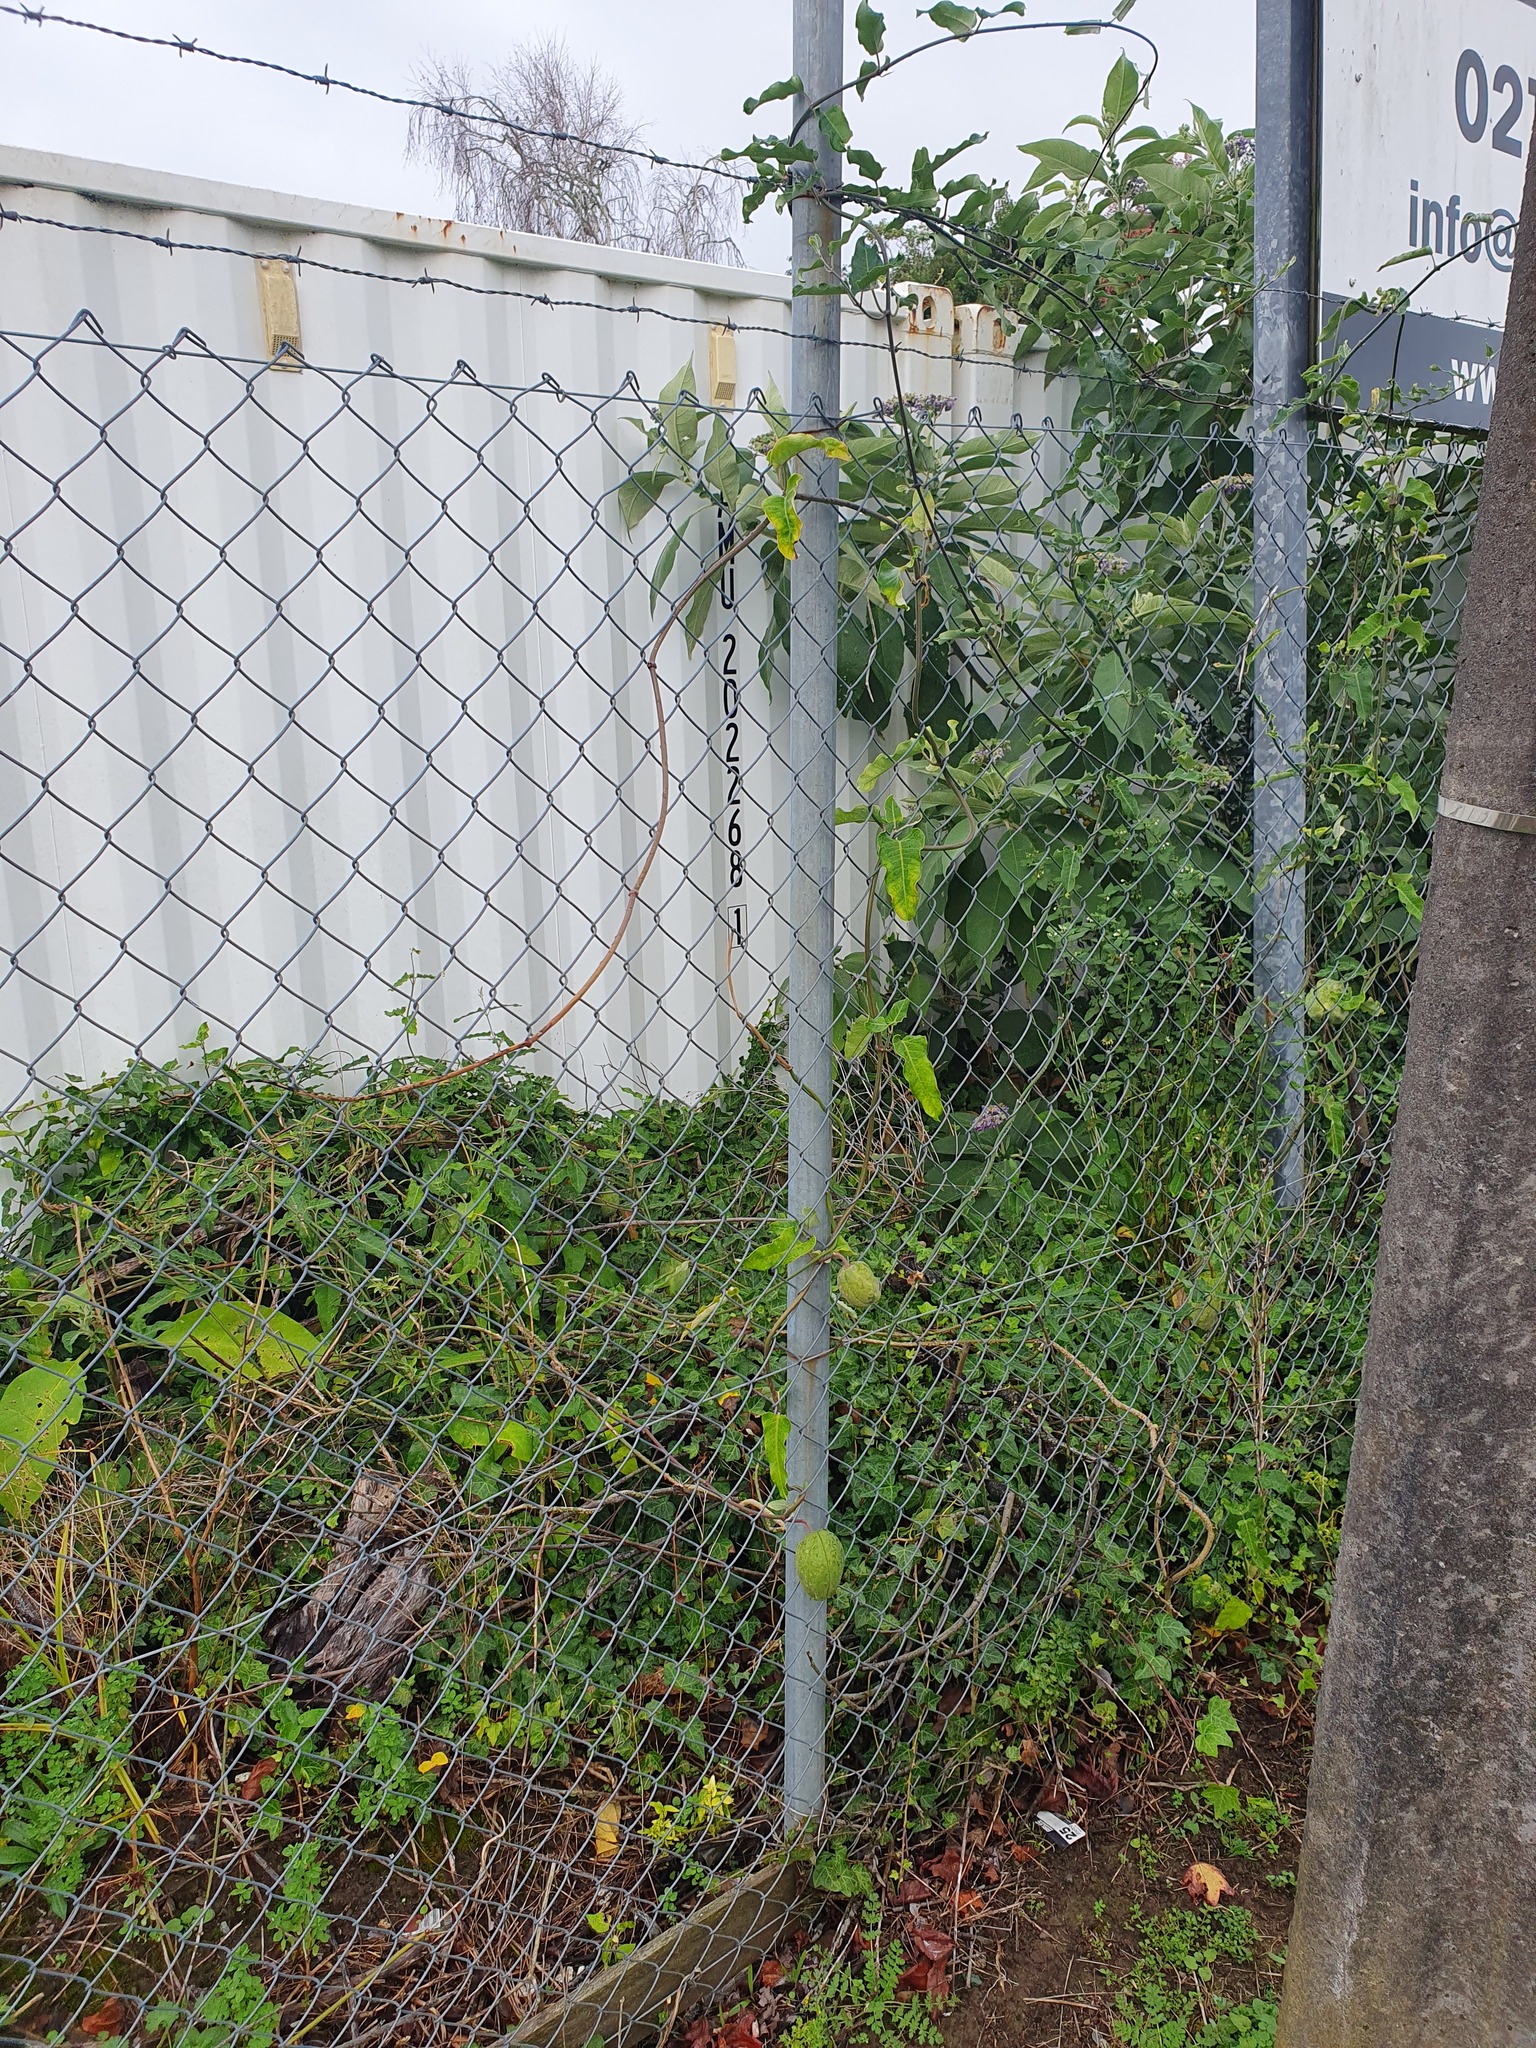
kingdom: Plantae
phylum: Tracheophyta
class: Magnoliopsida
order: Gentianales
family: Apocynaceae
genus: Araujia
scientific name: Araujia sericifera
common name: White bladderflower
